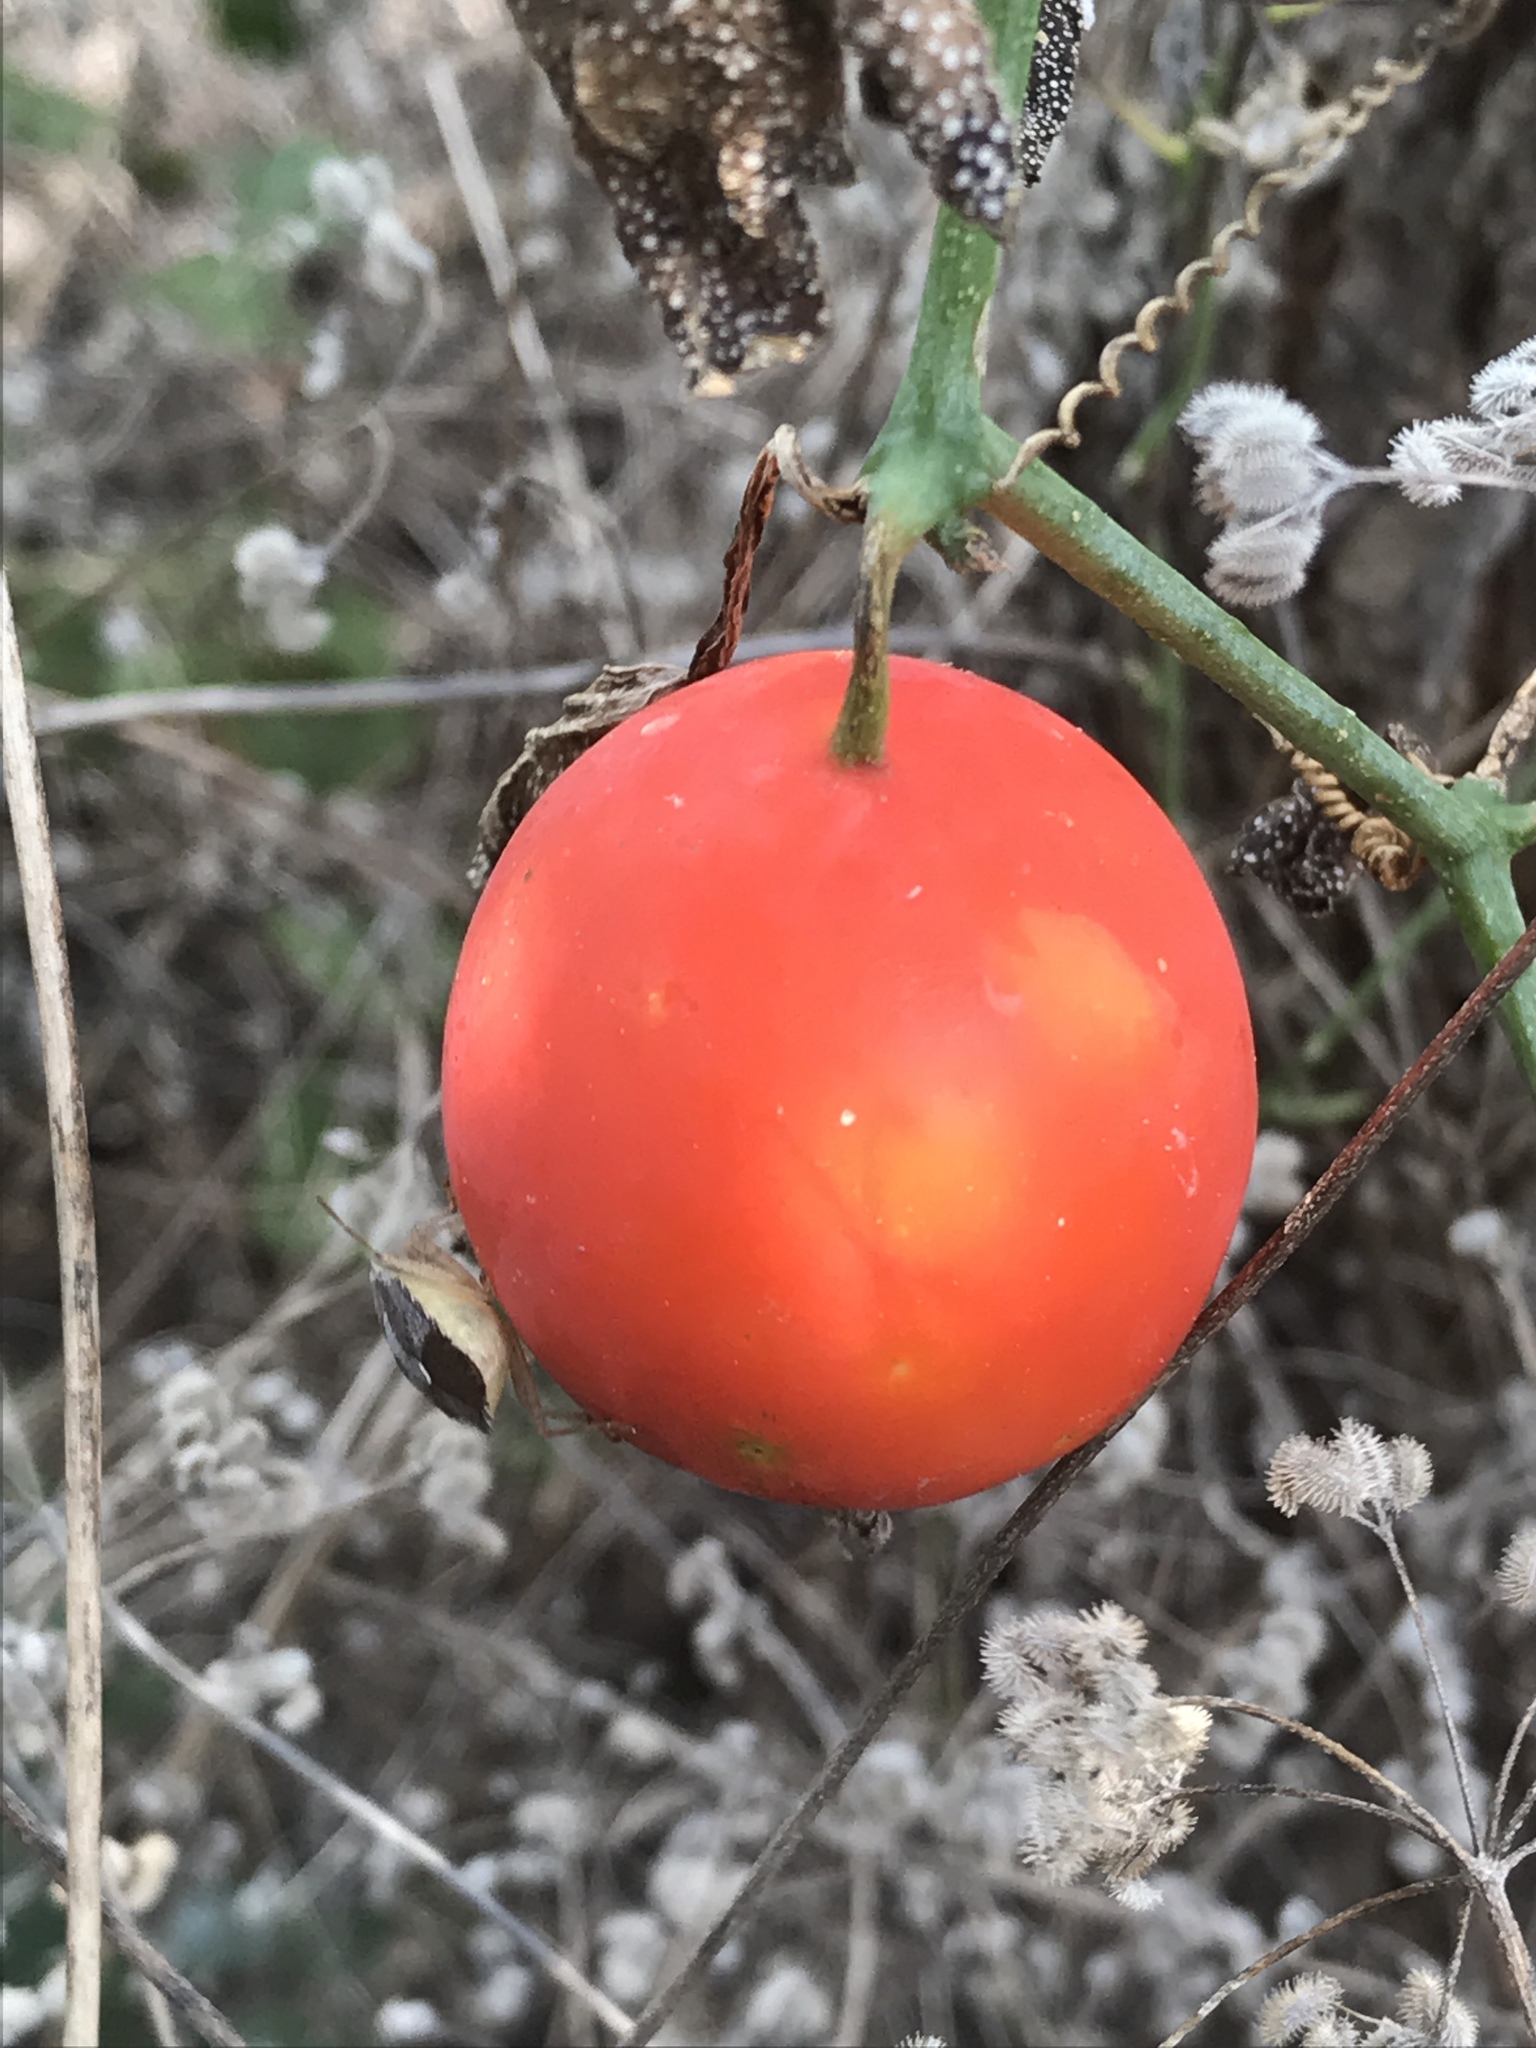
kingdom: Plantae
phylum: Tracheophyta
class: Magnoliopsida
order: Cucurbitales
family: Cucurbitaceae
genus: Ibervillea
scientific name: Ibervillea lindheimeri
